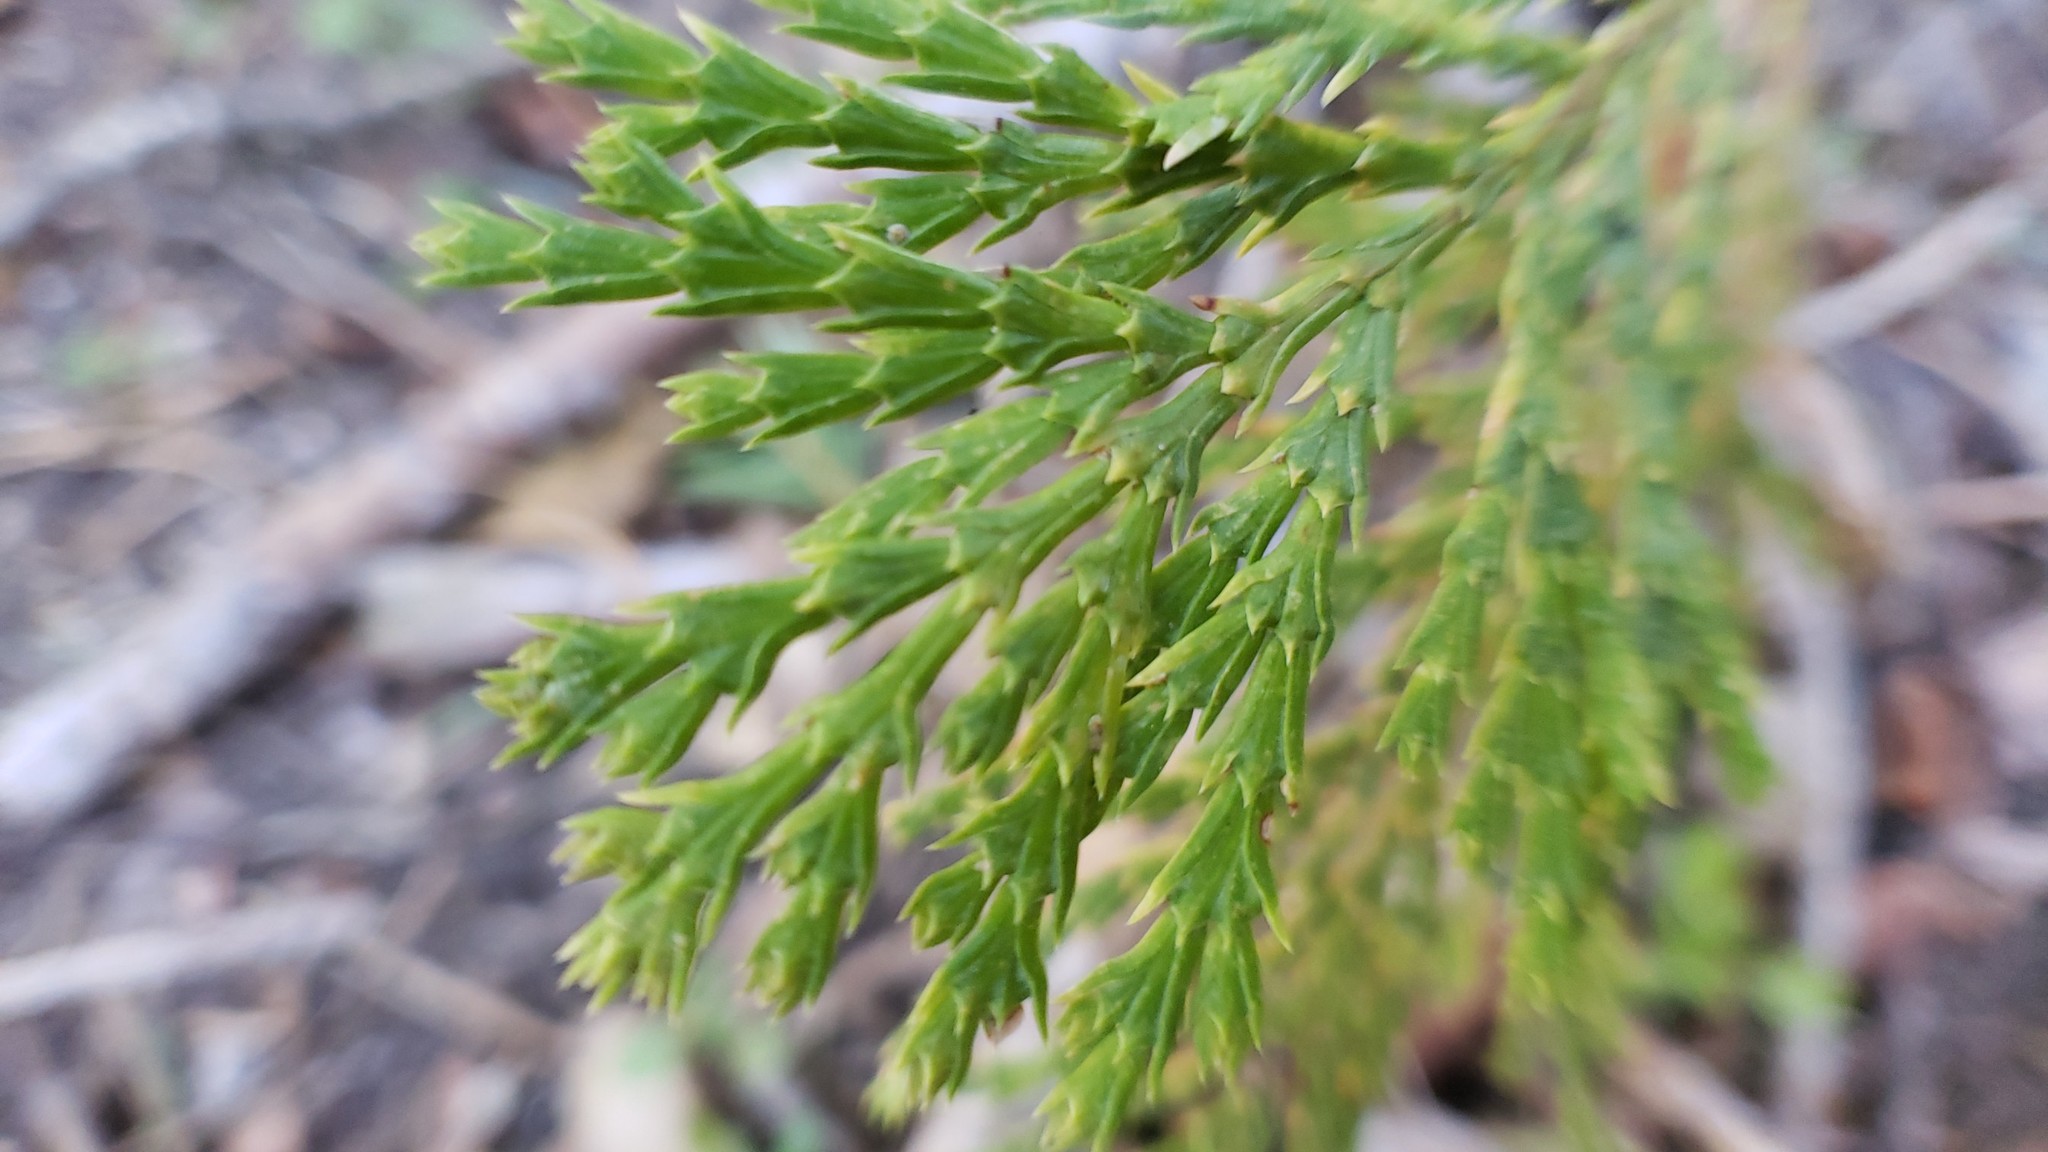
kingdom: Plantae
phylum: Tracheophyta
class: Pinopsida
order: Pinales
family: Cupressaceae
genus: Calocedrus
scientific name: Calocedrus decurrens
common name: Californian incense-cedar
